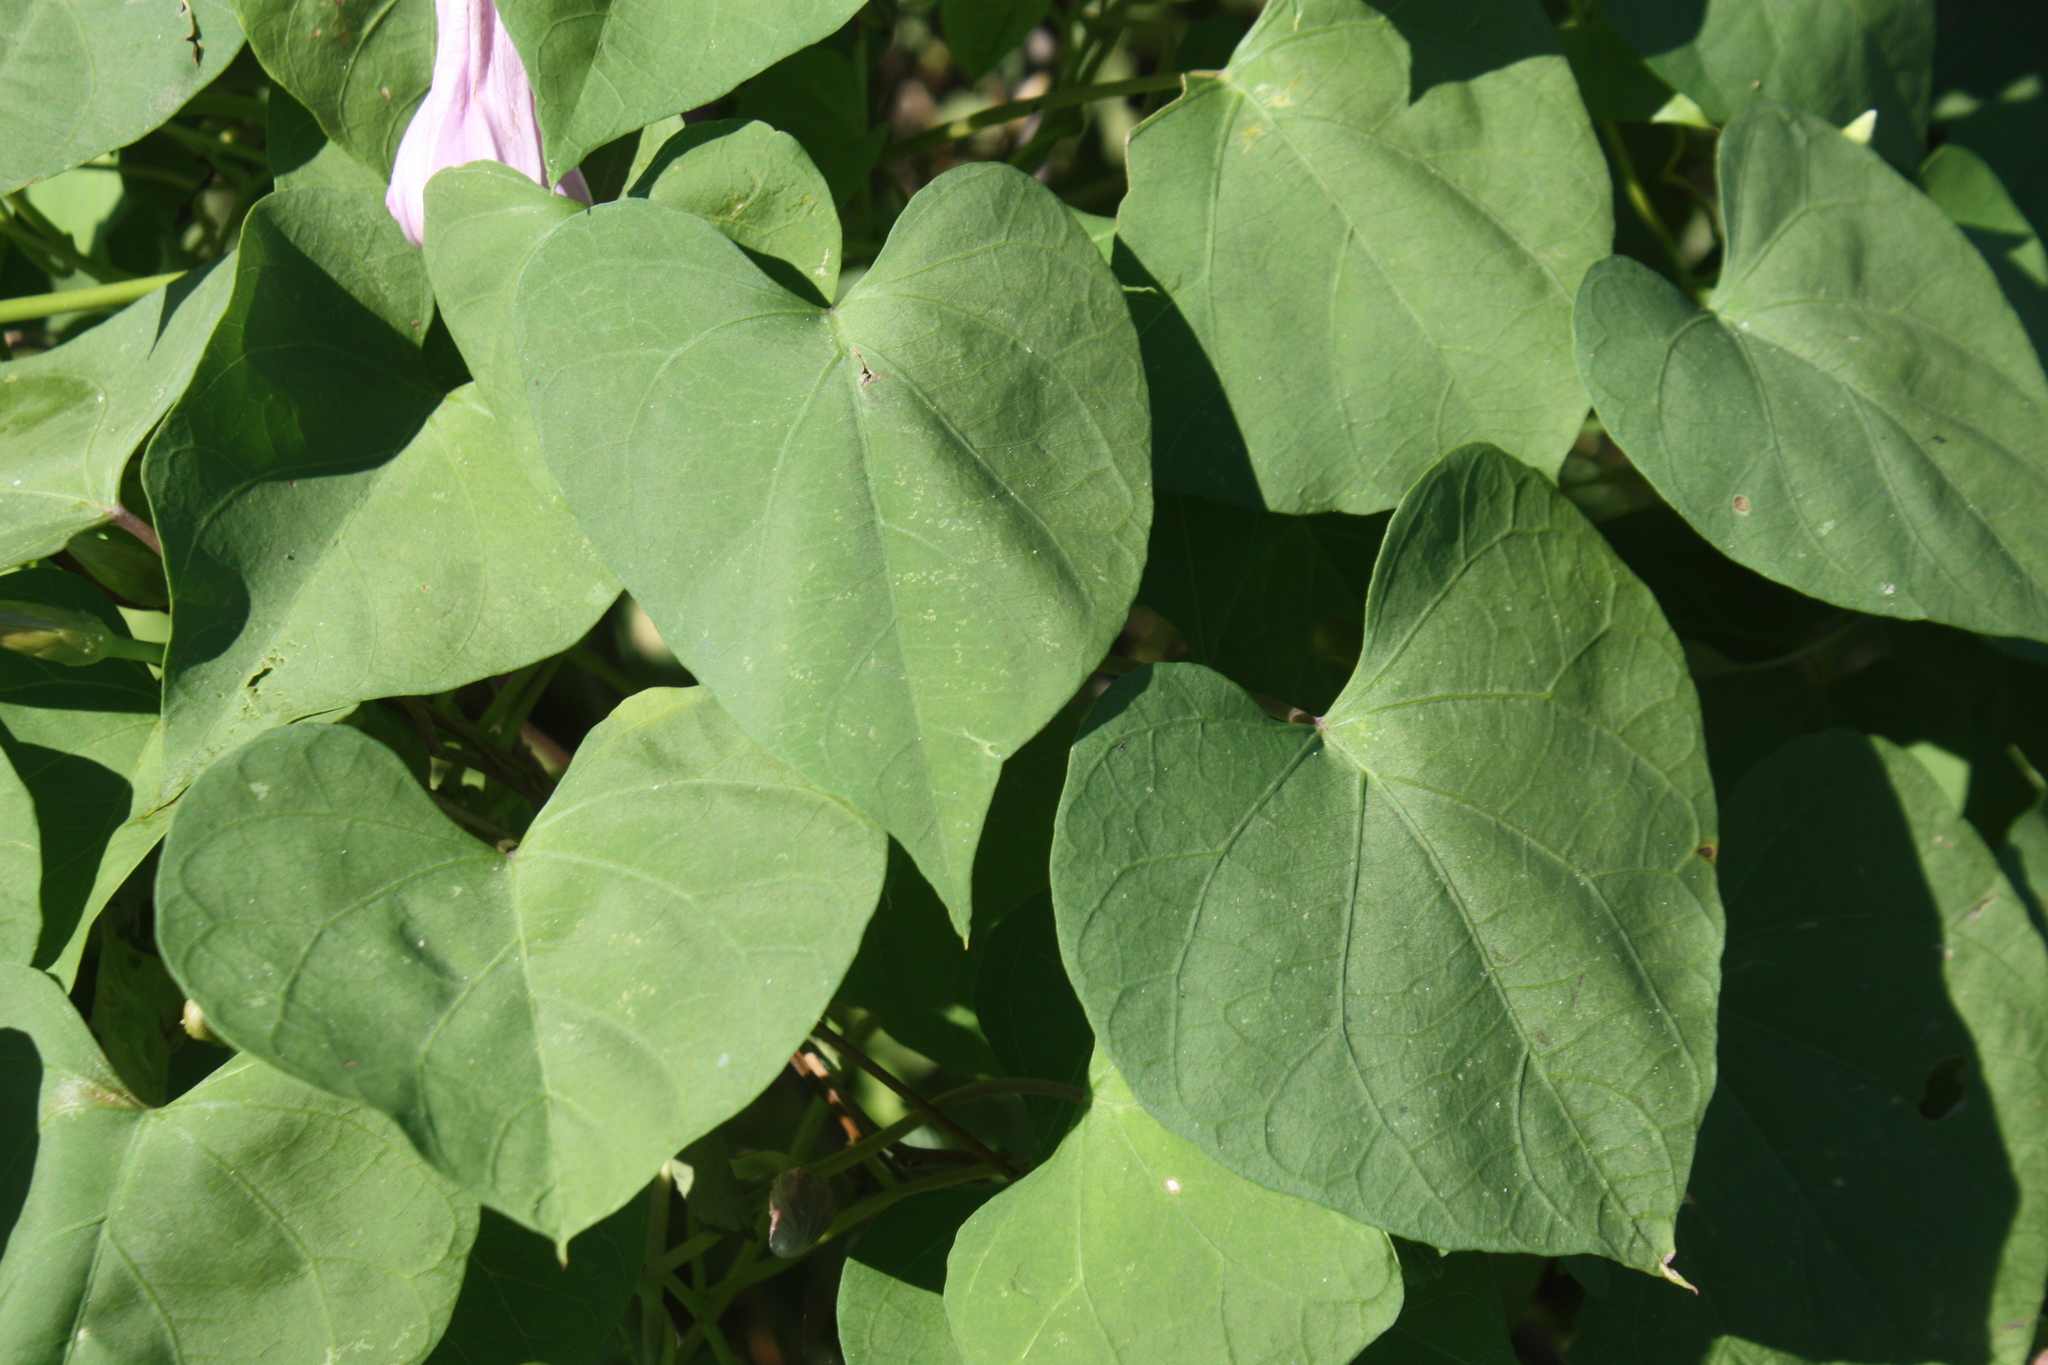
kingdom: Plantae
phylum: Tracheophyta
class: Magnoliopsida
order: Solanales
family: Convolvulaceae
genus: Ipomoea
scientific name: Ipomoea pedicellaris
